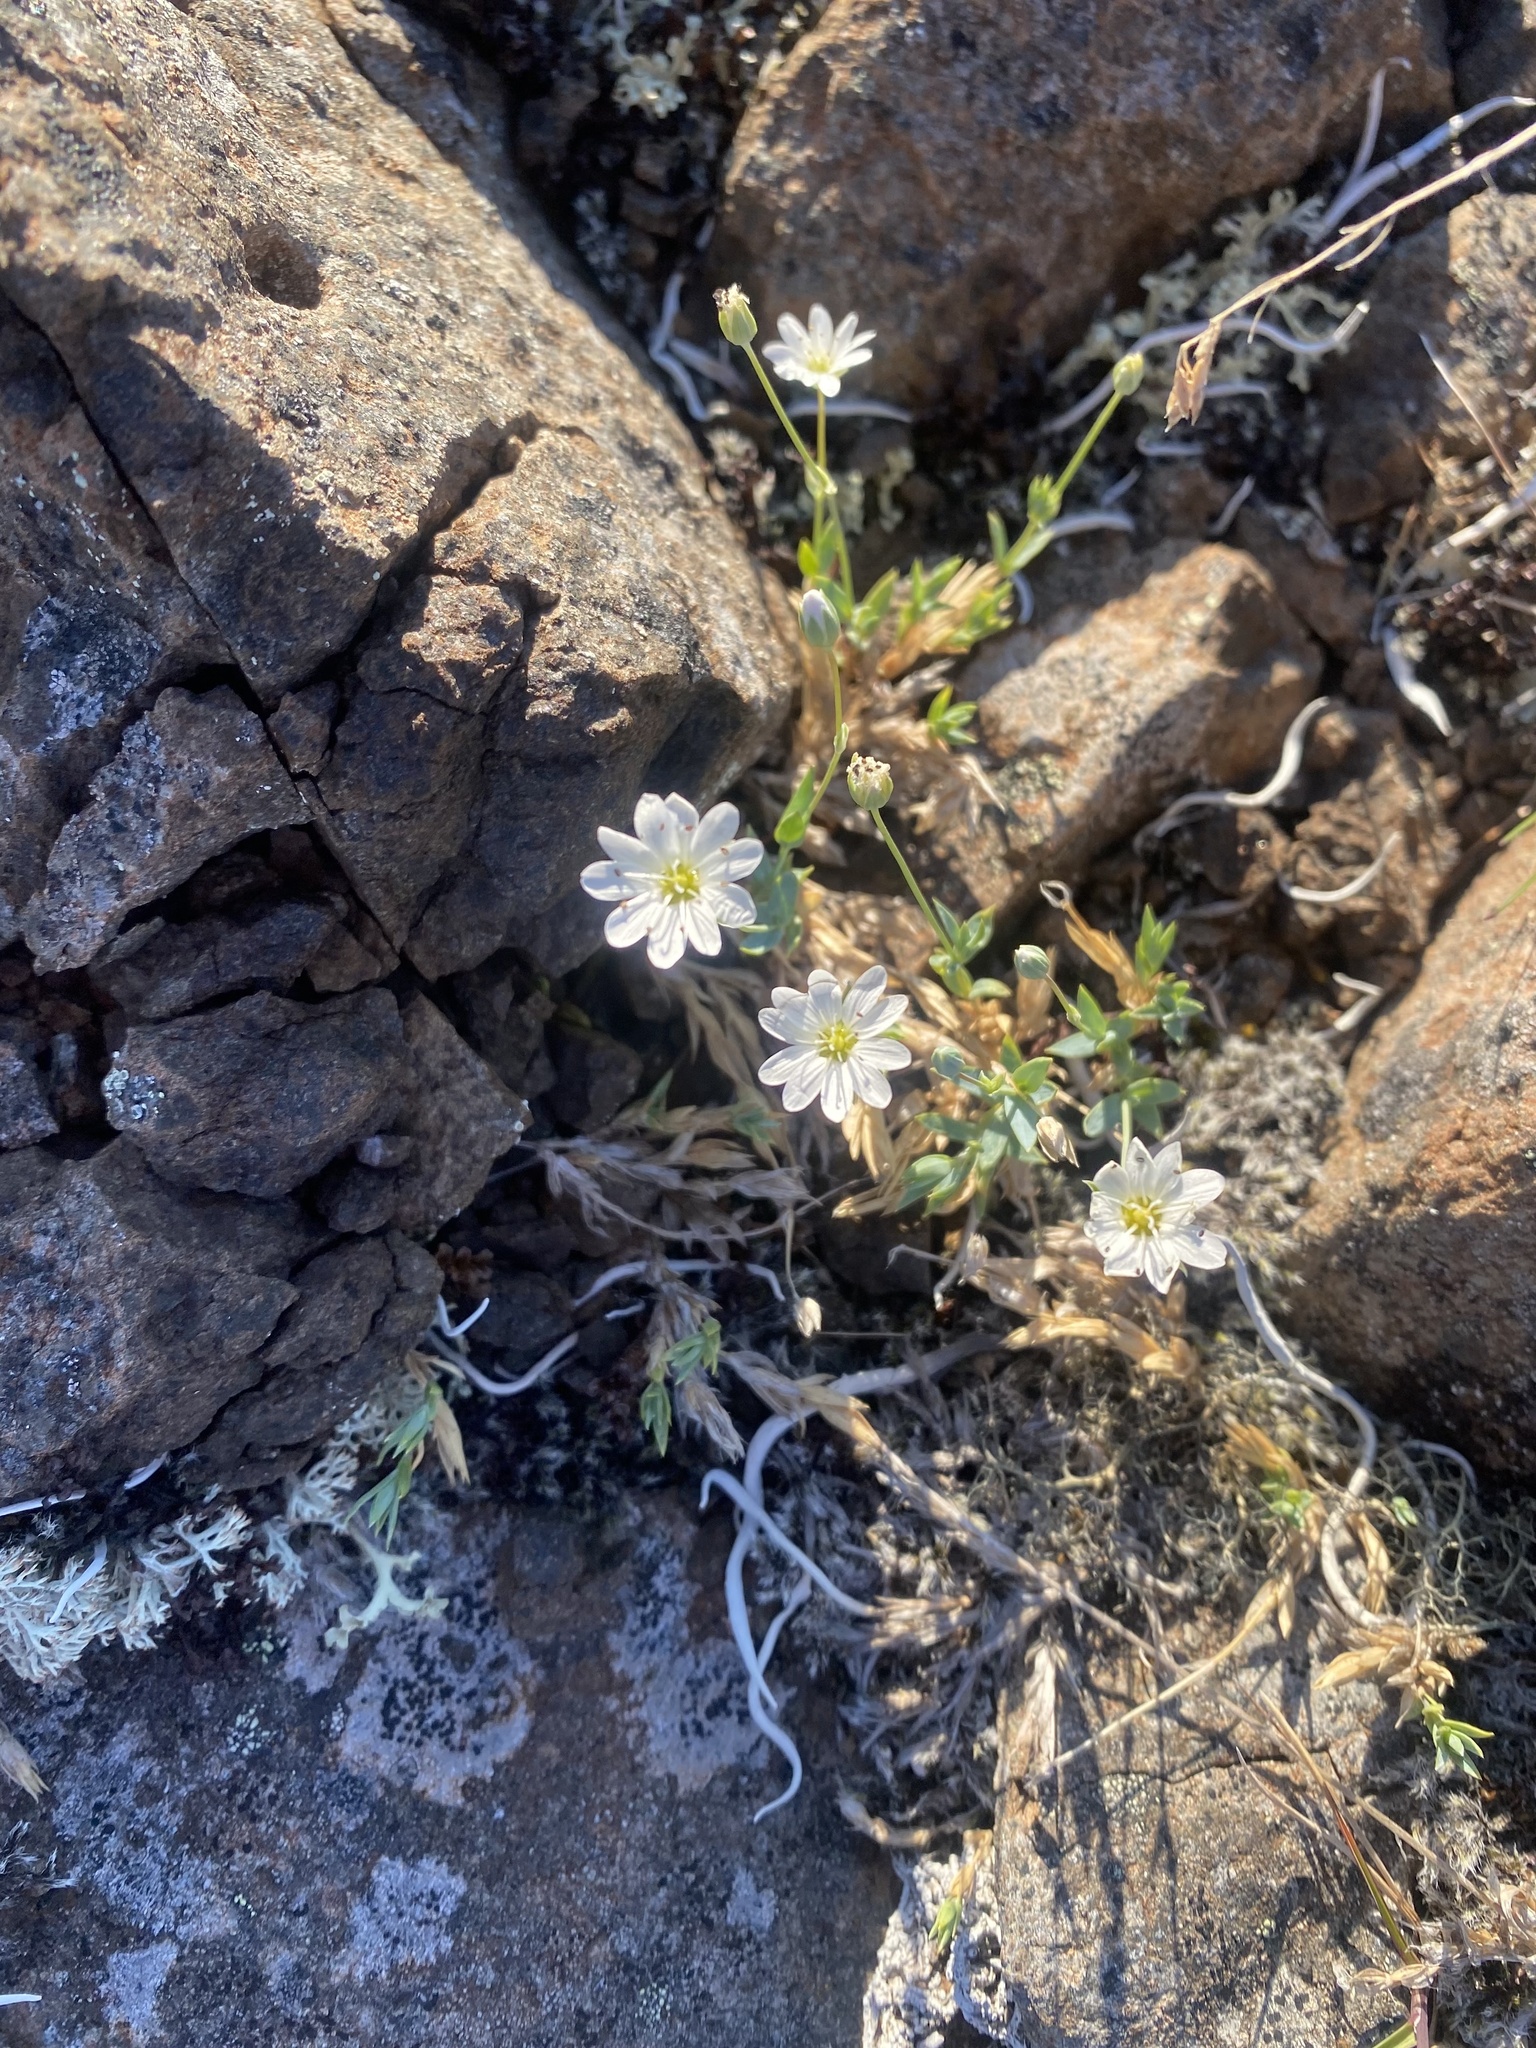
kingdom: Plantae
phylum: Tracheophyta
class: Magnoliopsida
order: Caryophyllales
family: Caryophyllaceae
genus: Stellaria
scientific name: Stellaria fischeriana
